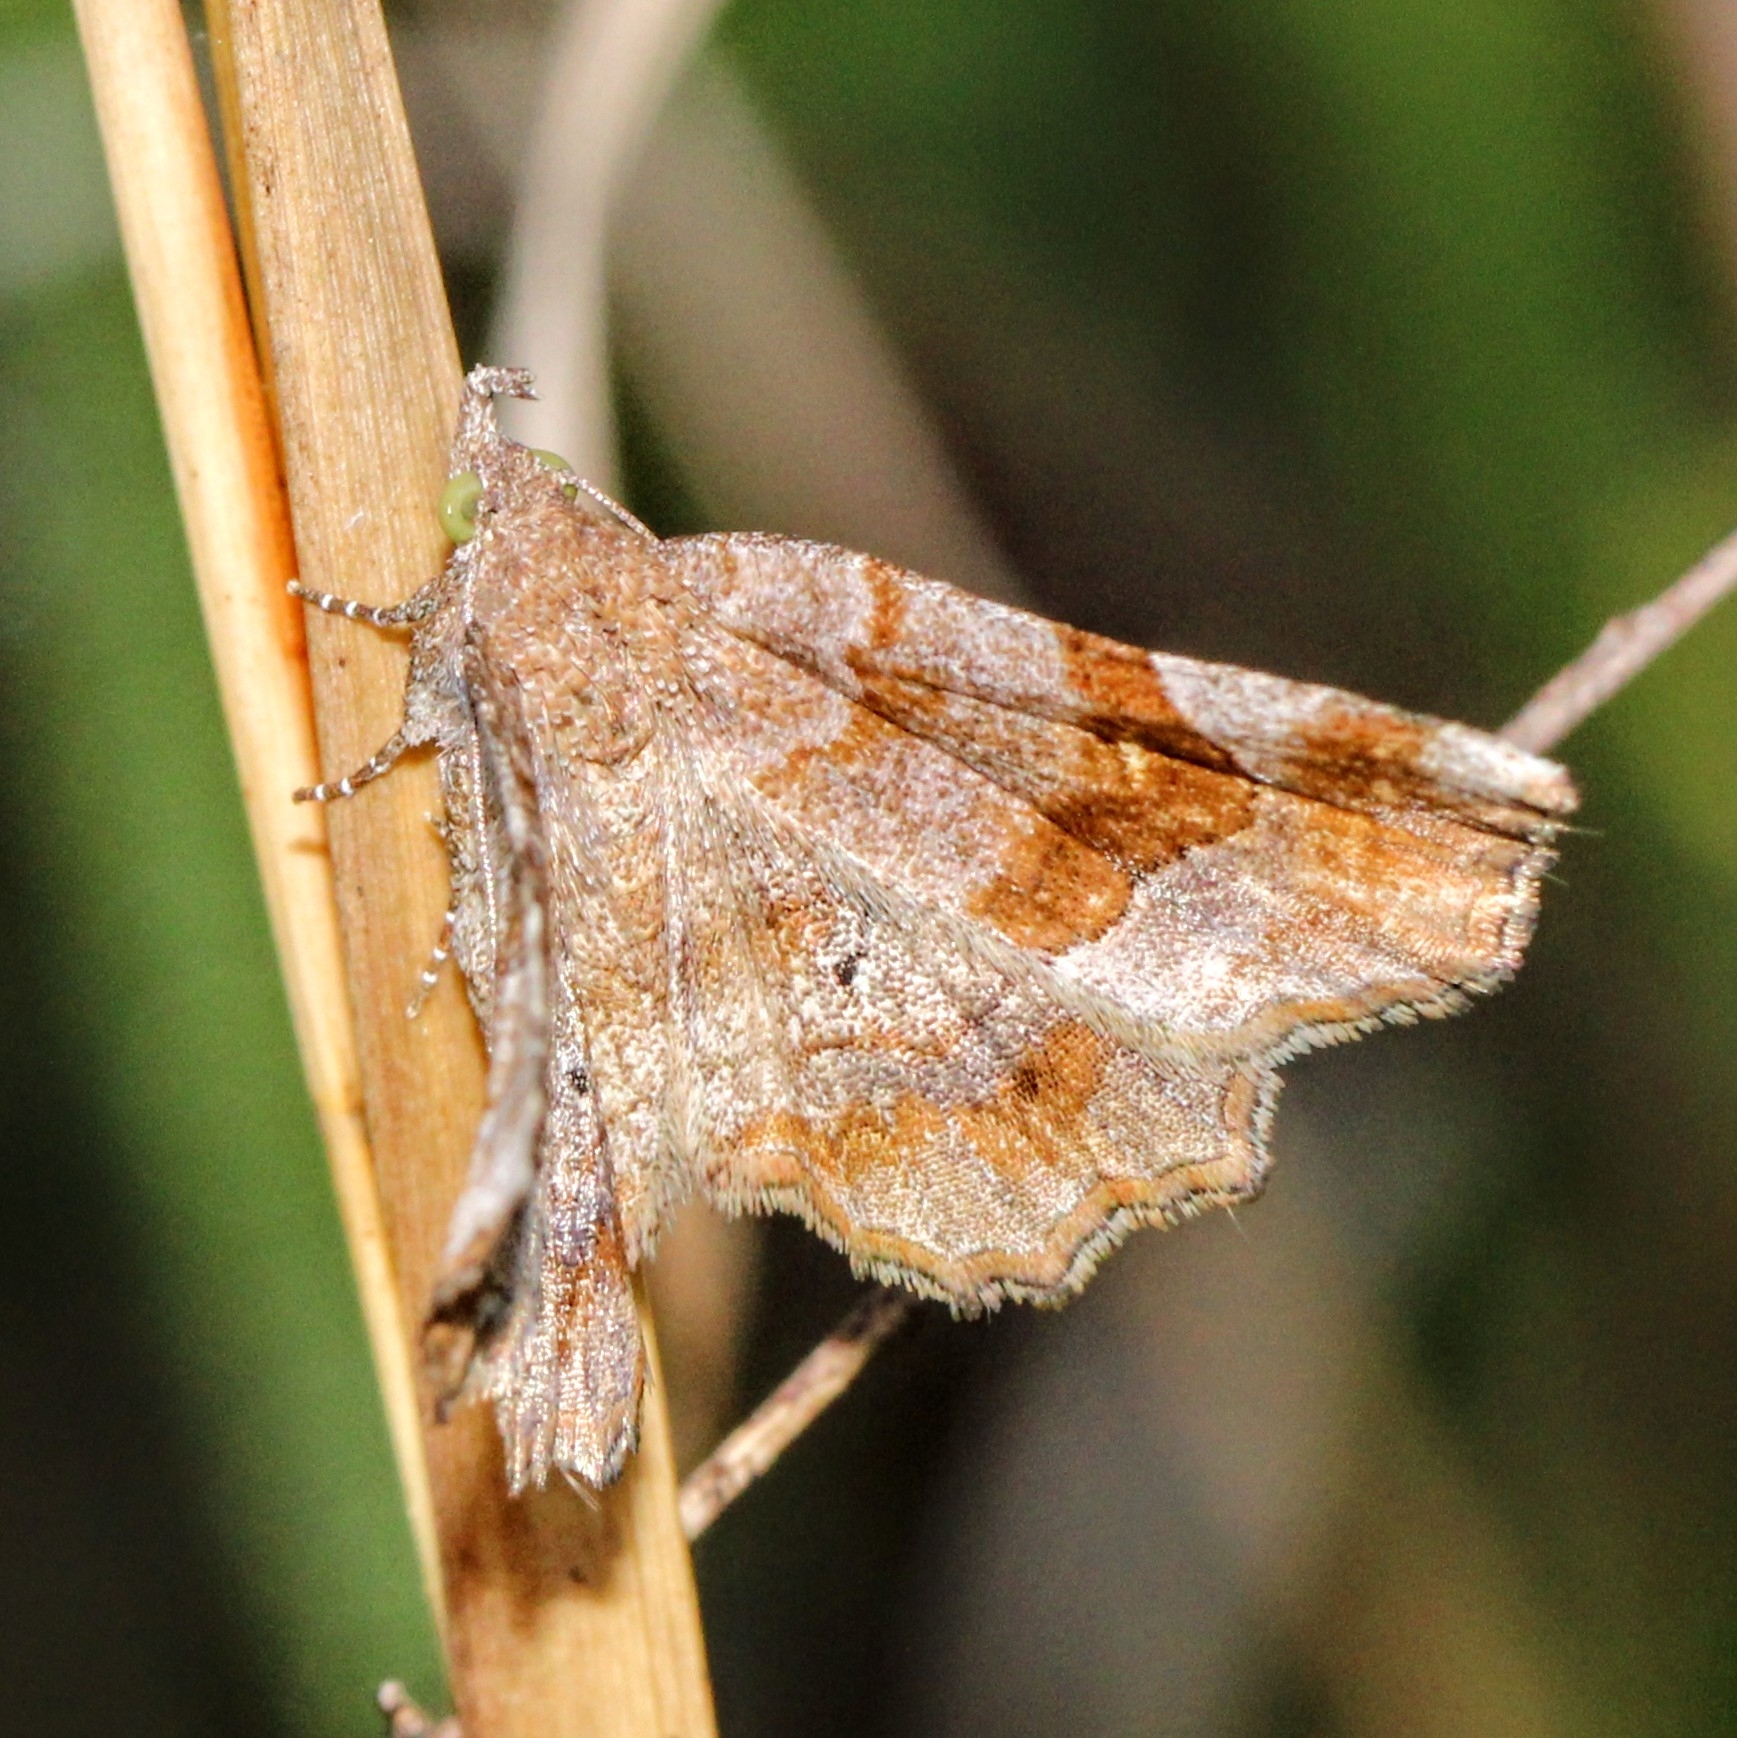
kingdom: Animalia
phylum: Arthropoda
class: Insecta
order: Lepidoptera
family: Erebidae
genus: Pangrapta
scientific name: Pangrapta decoralis
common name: Decorated owlet
